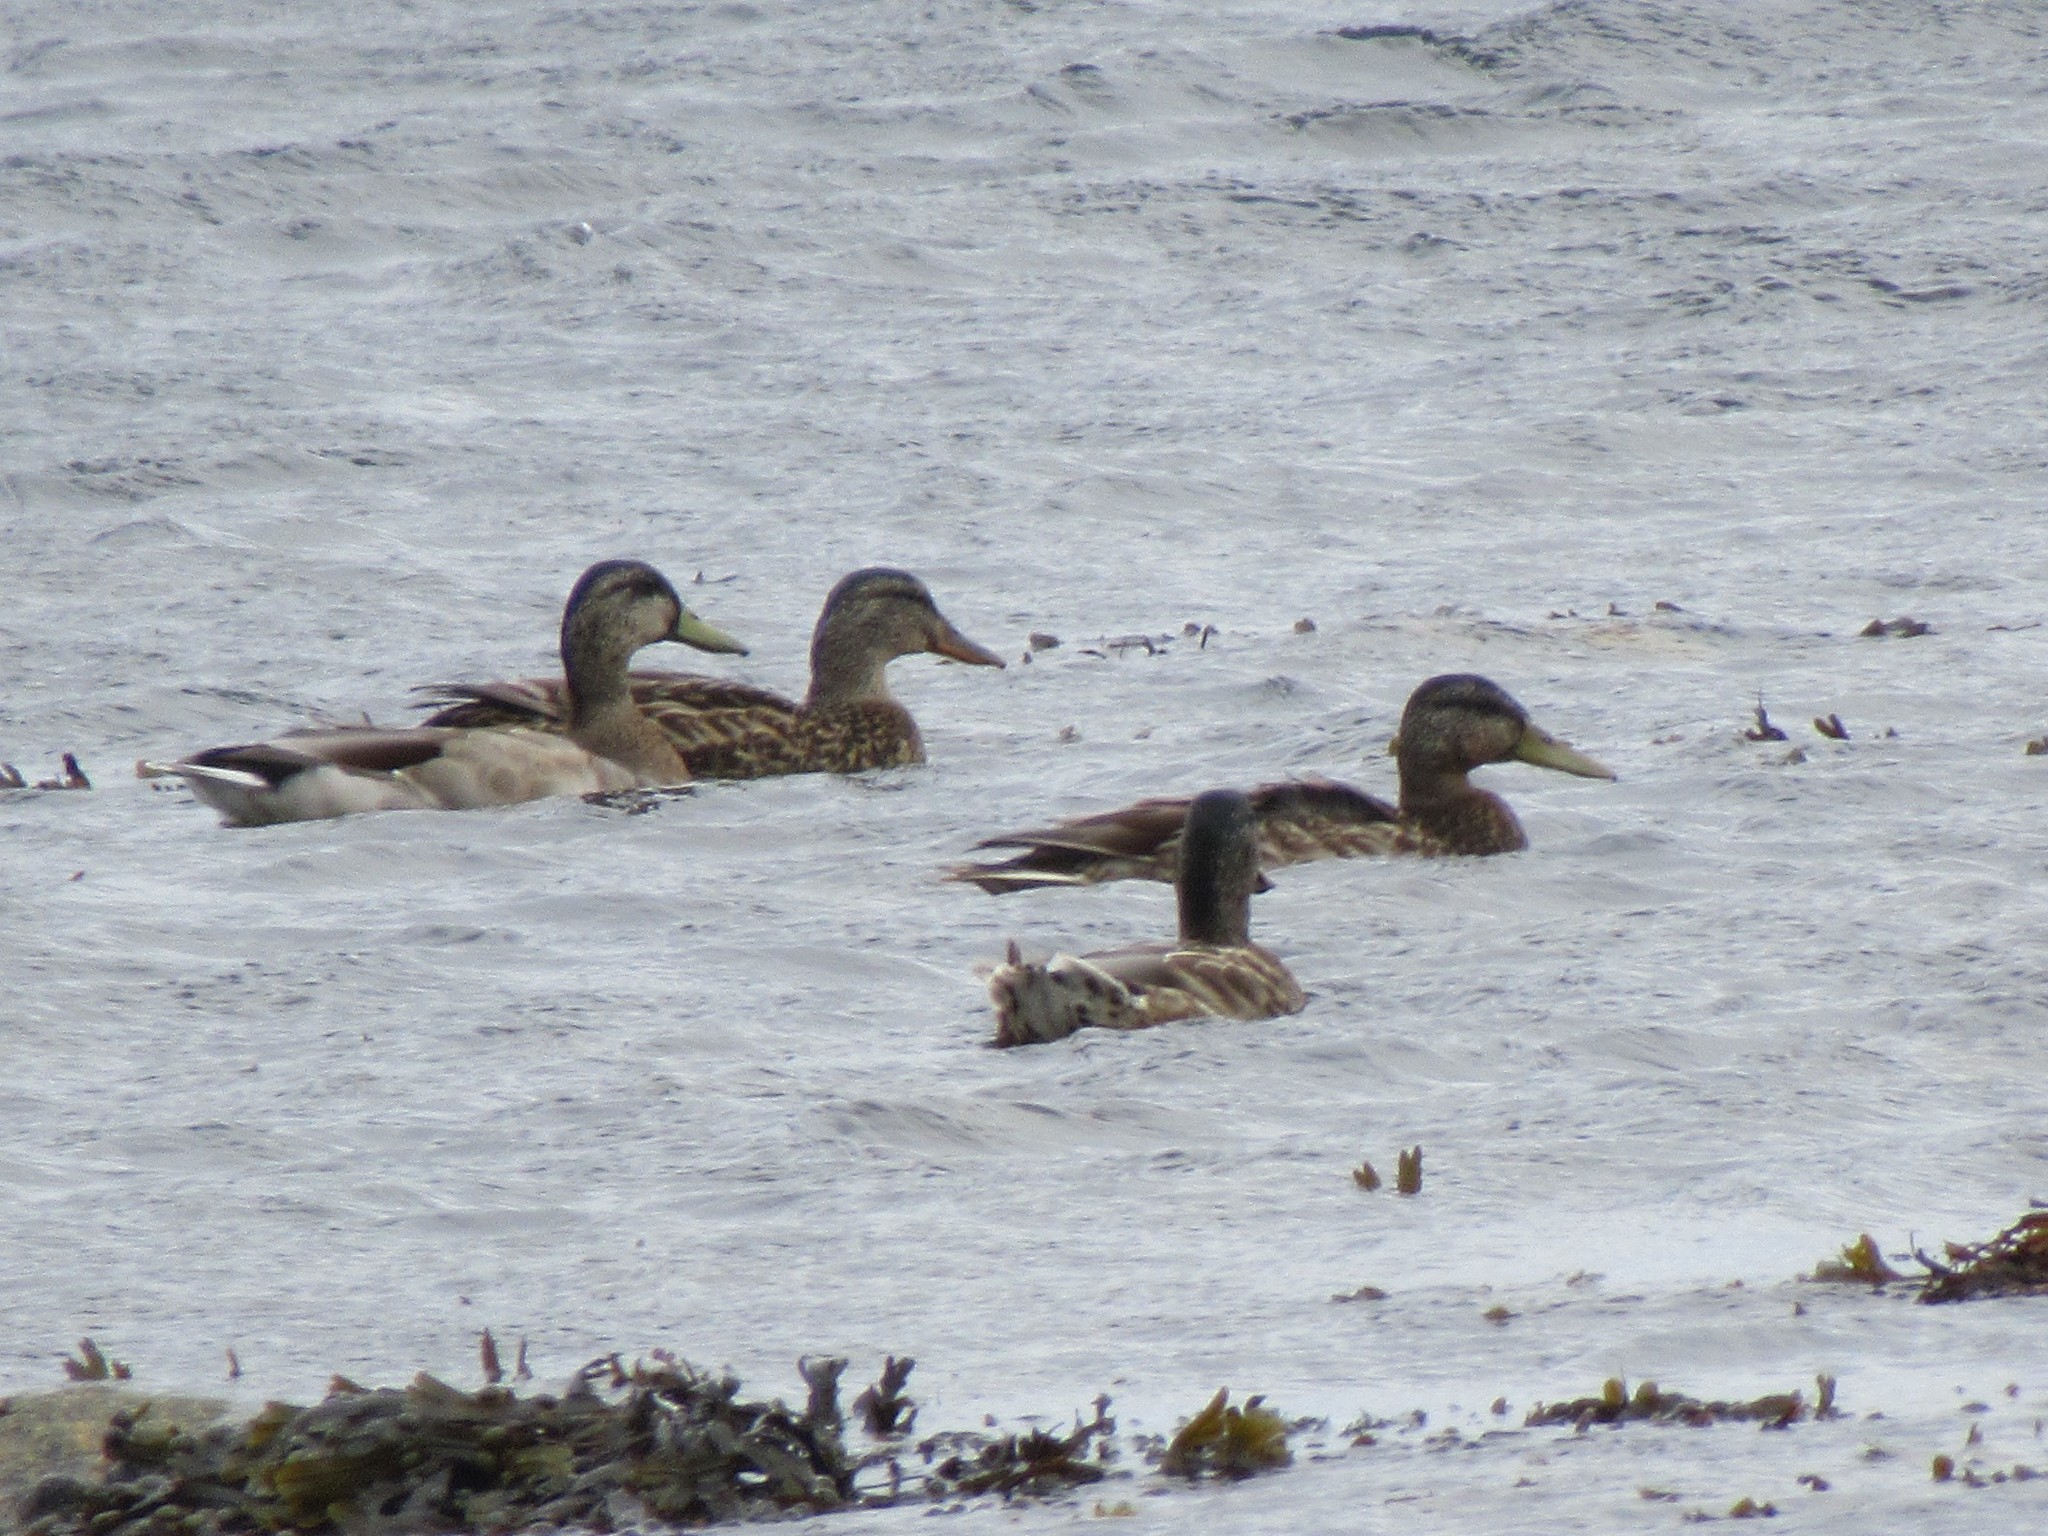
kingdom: Animalia
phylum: Chordata
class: Aves
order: Anseriformes
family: Anatidae
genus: Anas
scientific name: Anas platyrhynchos
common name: Mallard
